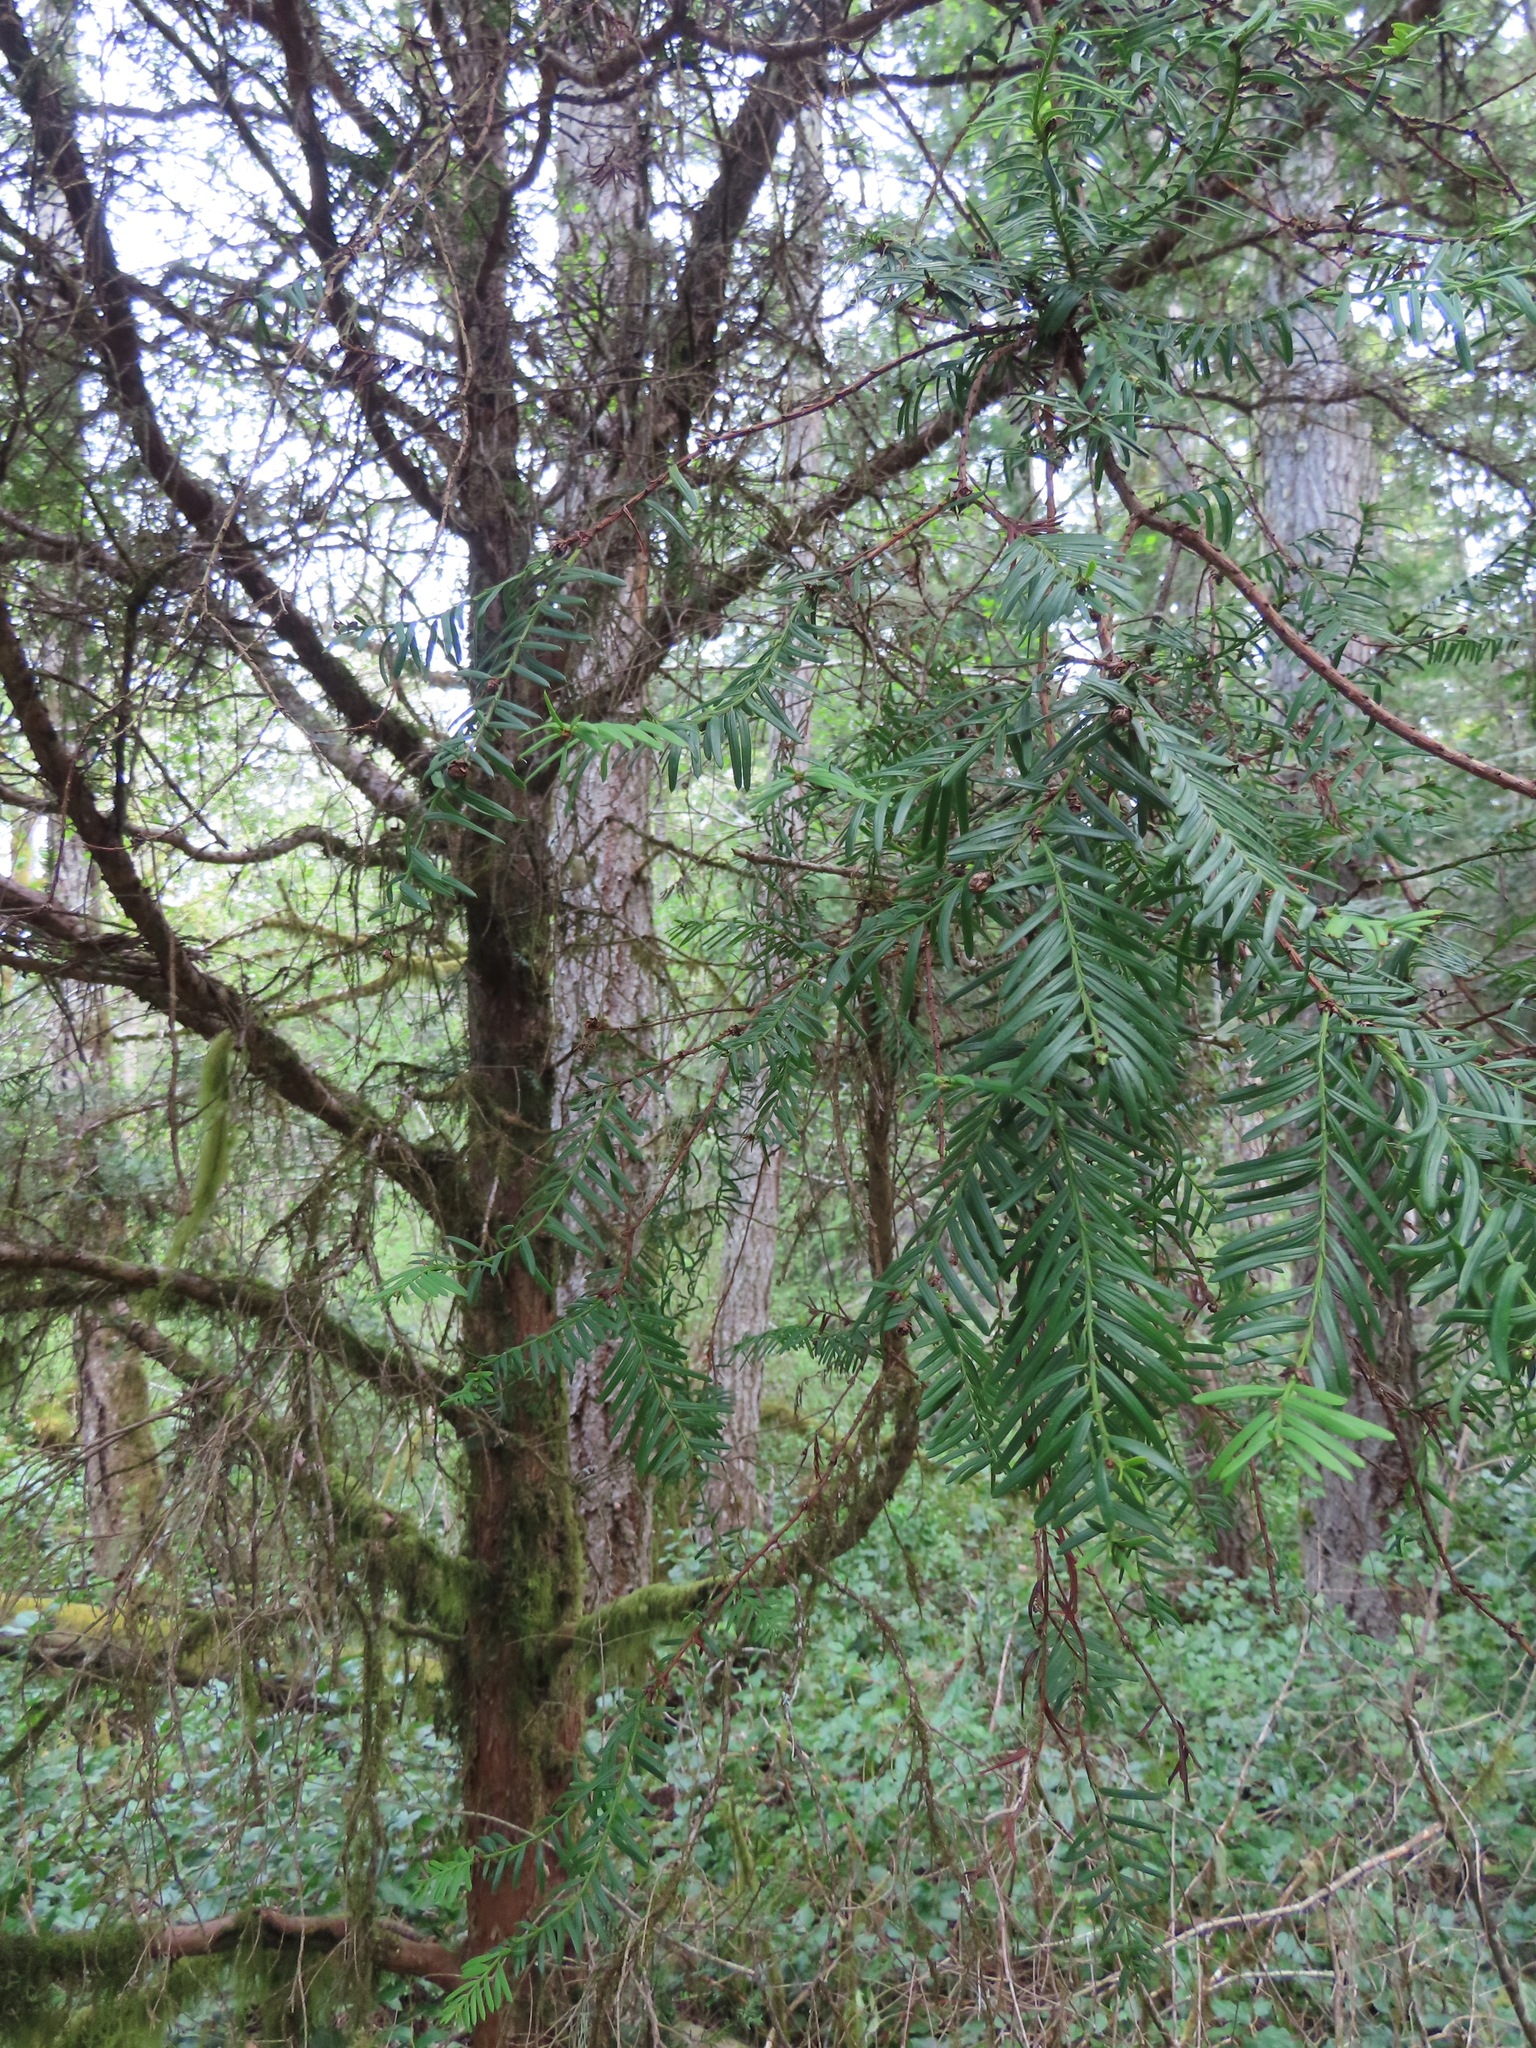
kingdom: Plantae
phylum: Tracheophyta
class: Pinopsida
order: Pinales
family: Taxaceae
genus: Taxus
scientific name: Taxus brevifolia
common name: Pacific yew
